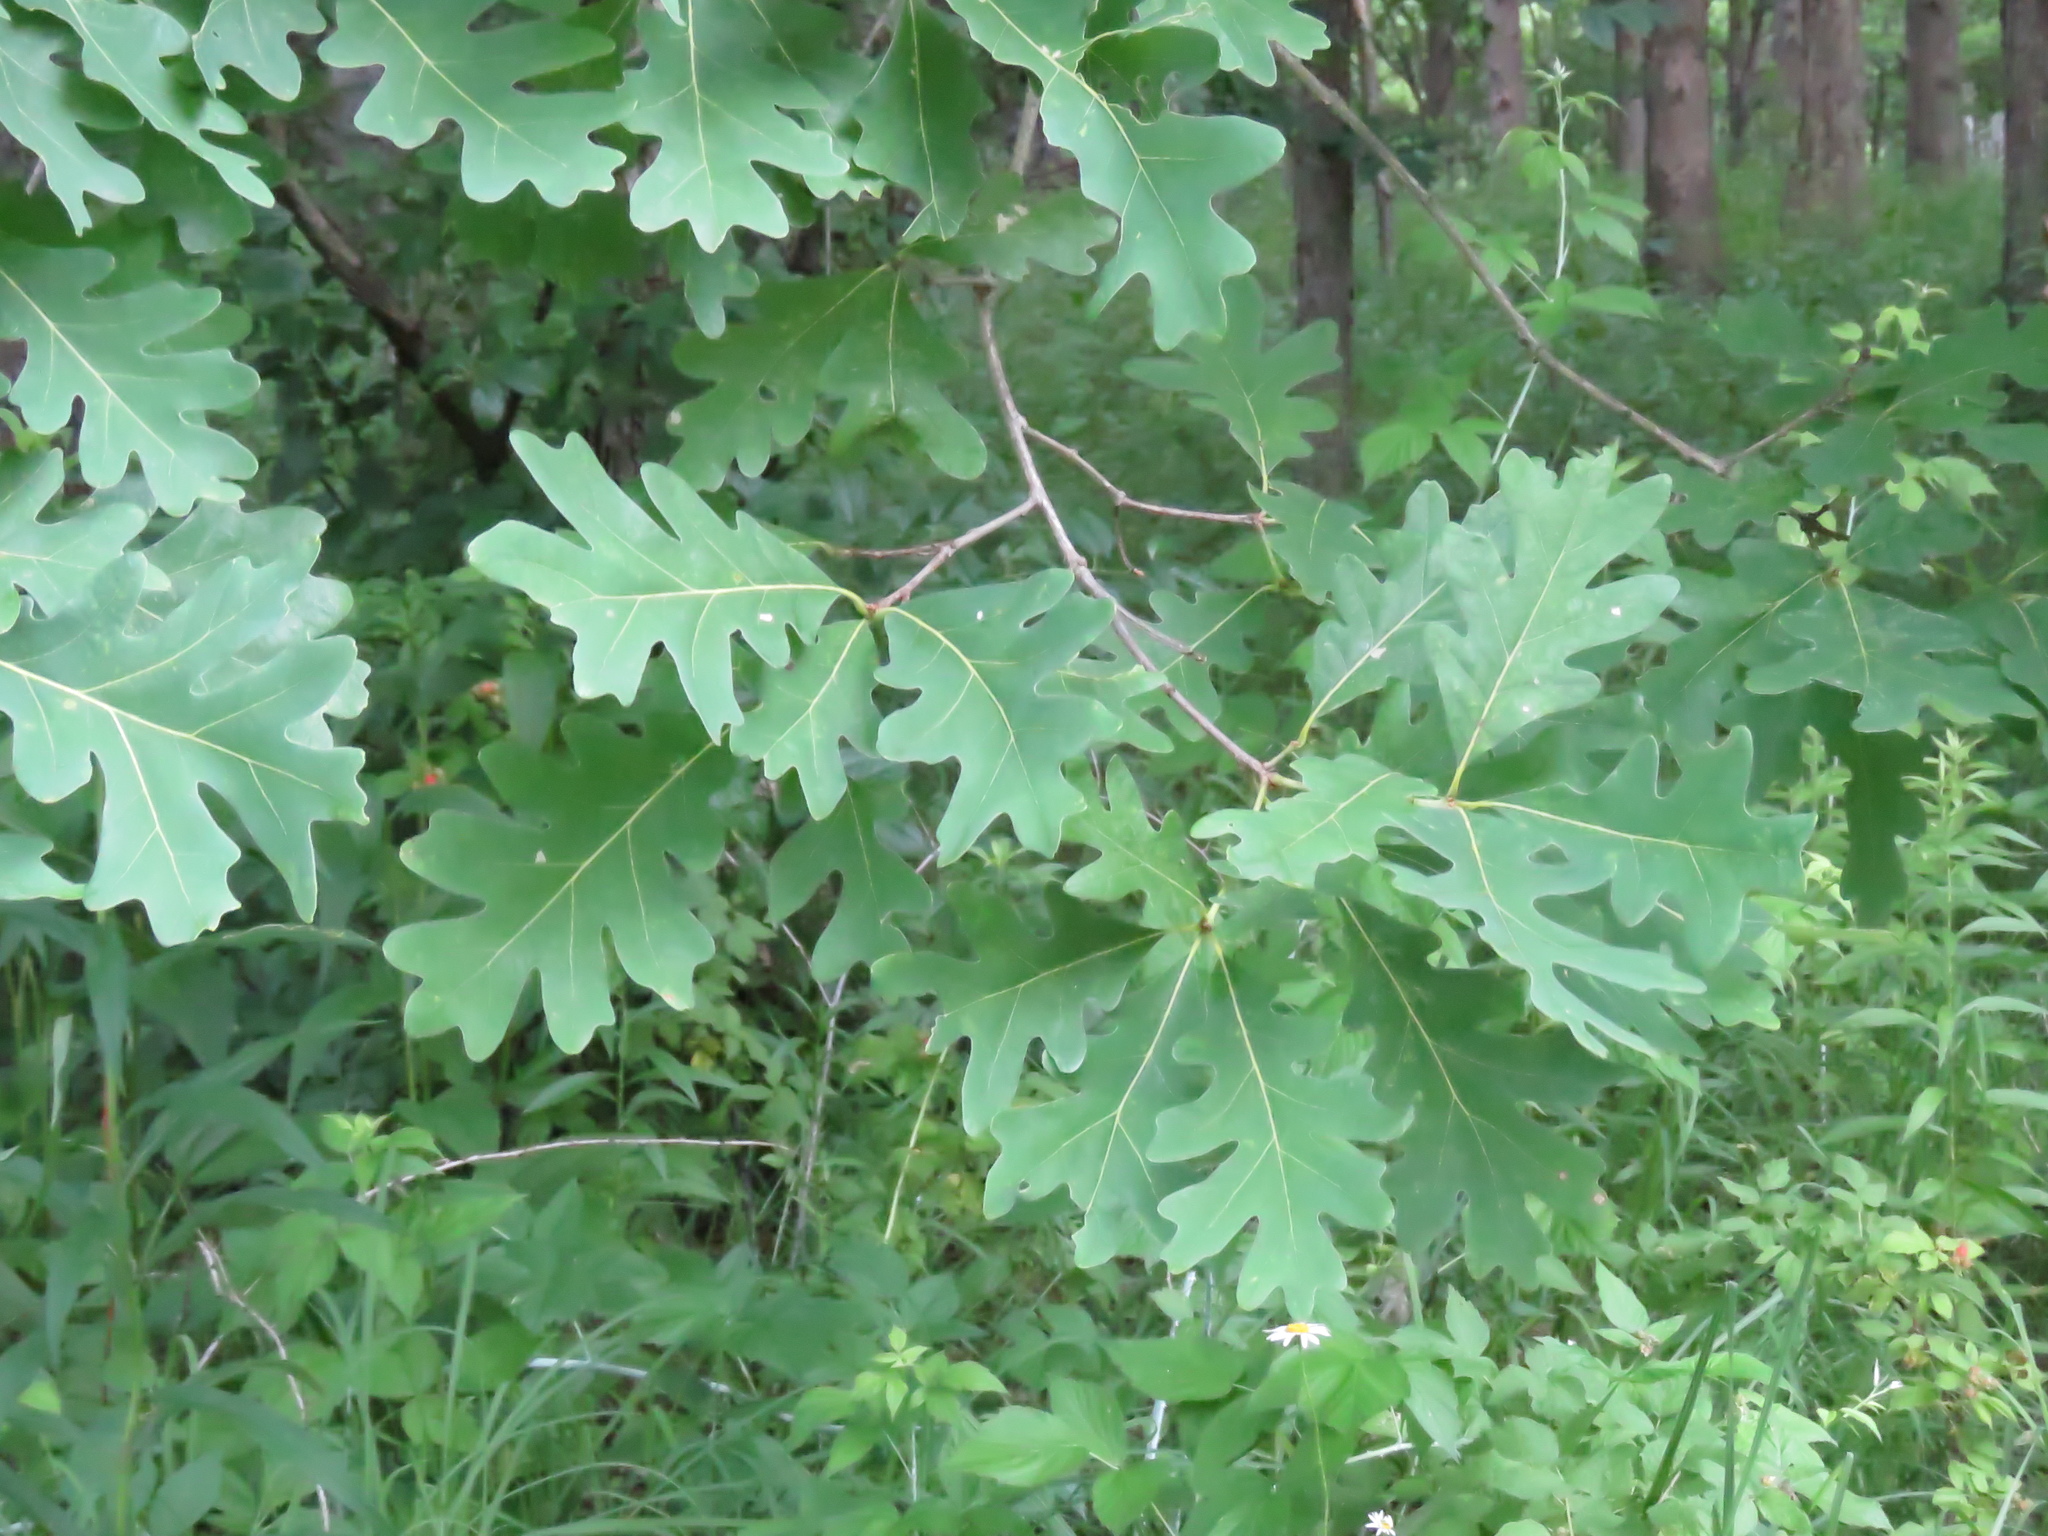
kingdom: Plantae
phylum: Tracheophyta
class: Magnoliopsida
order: Fagales
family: Fagaceae
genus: Quercus
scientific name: Quercus alba
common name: White oak
